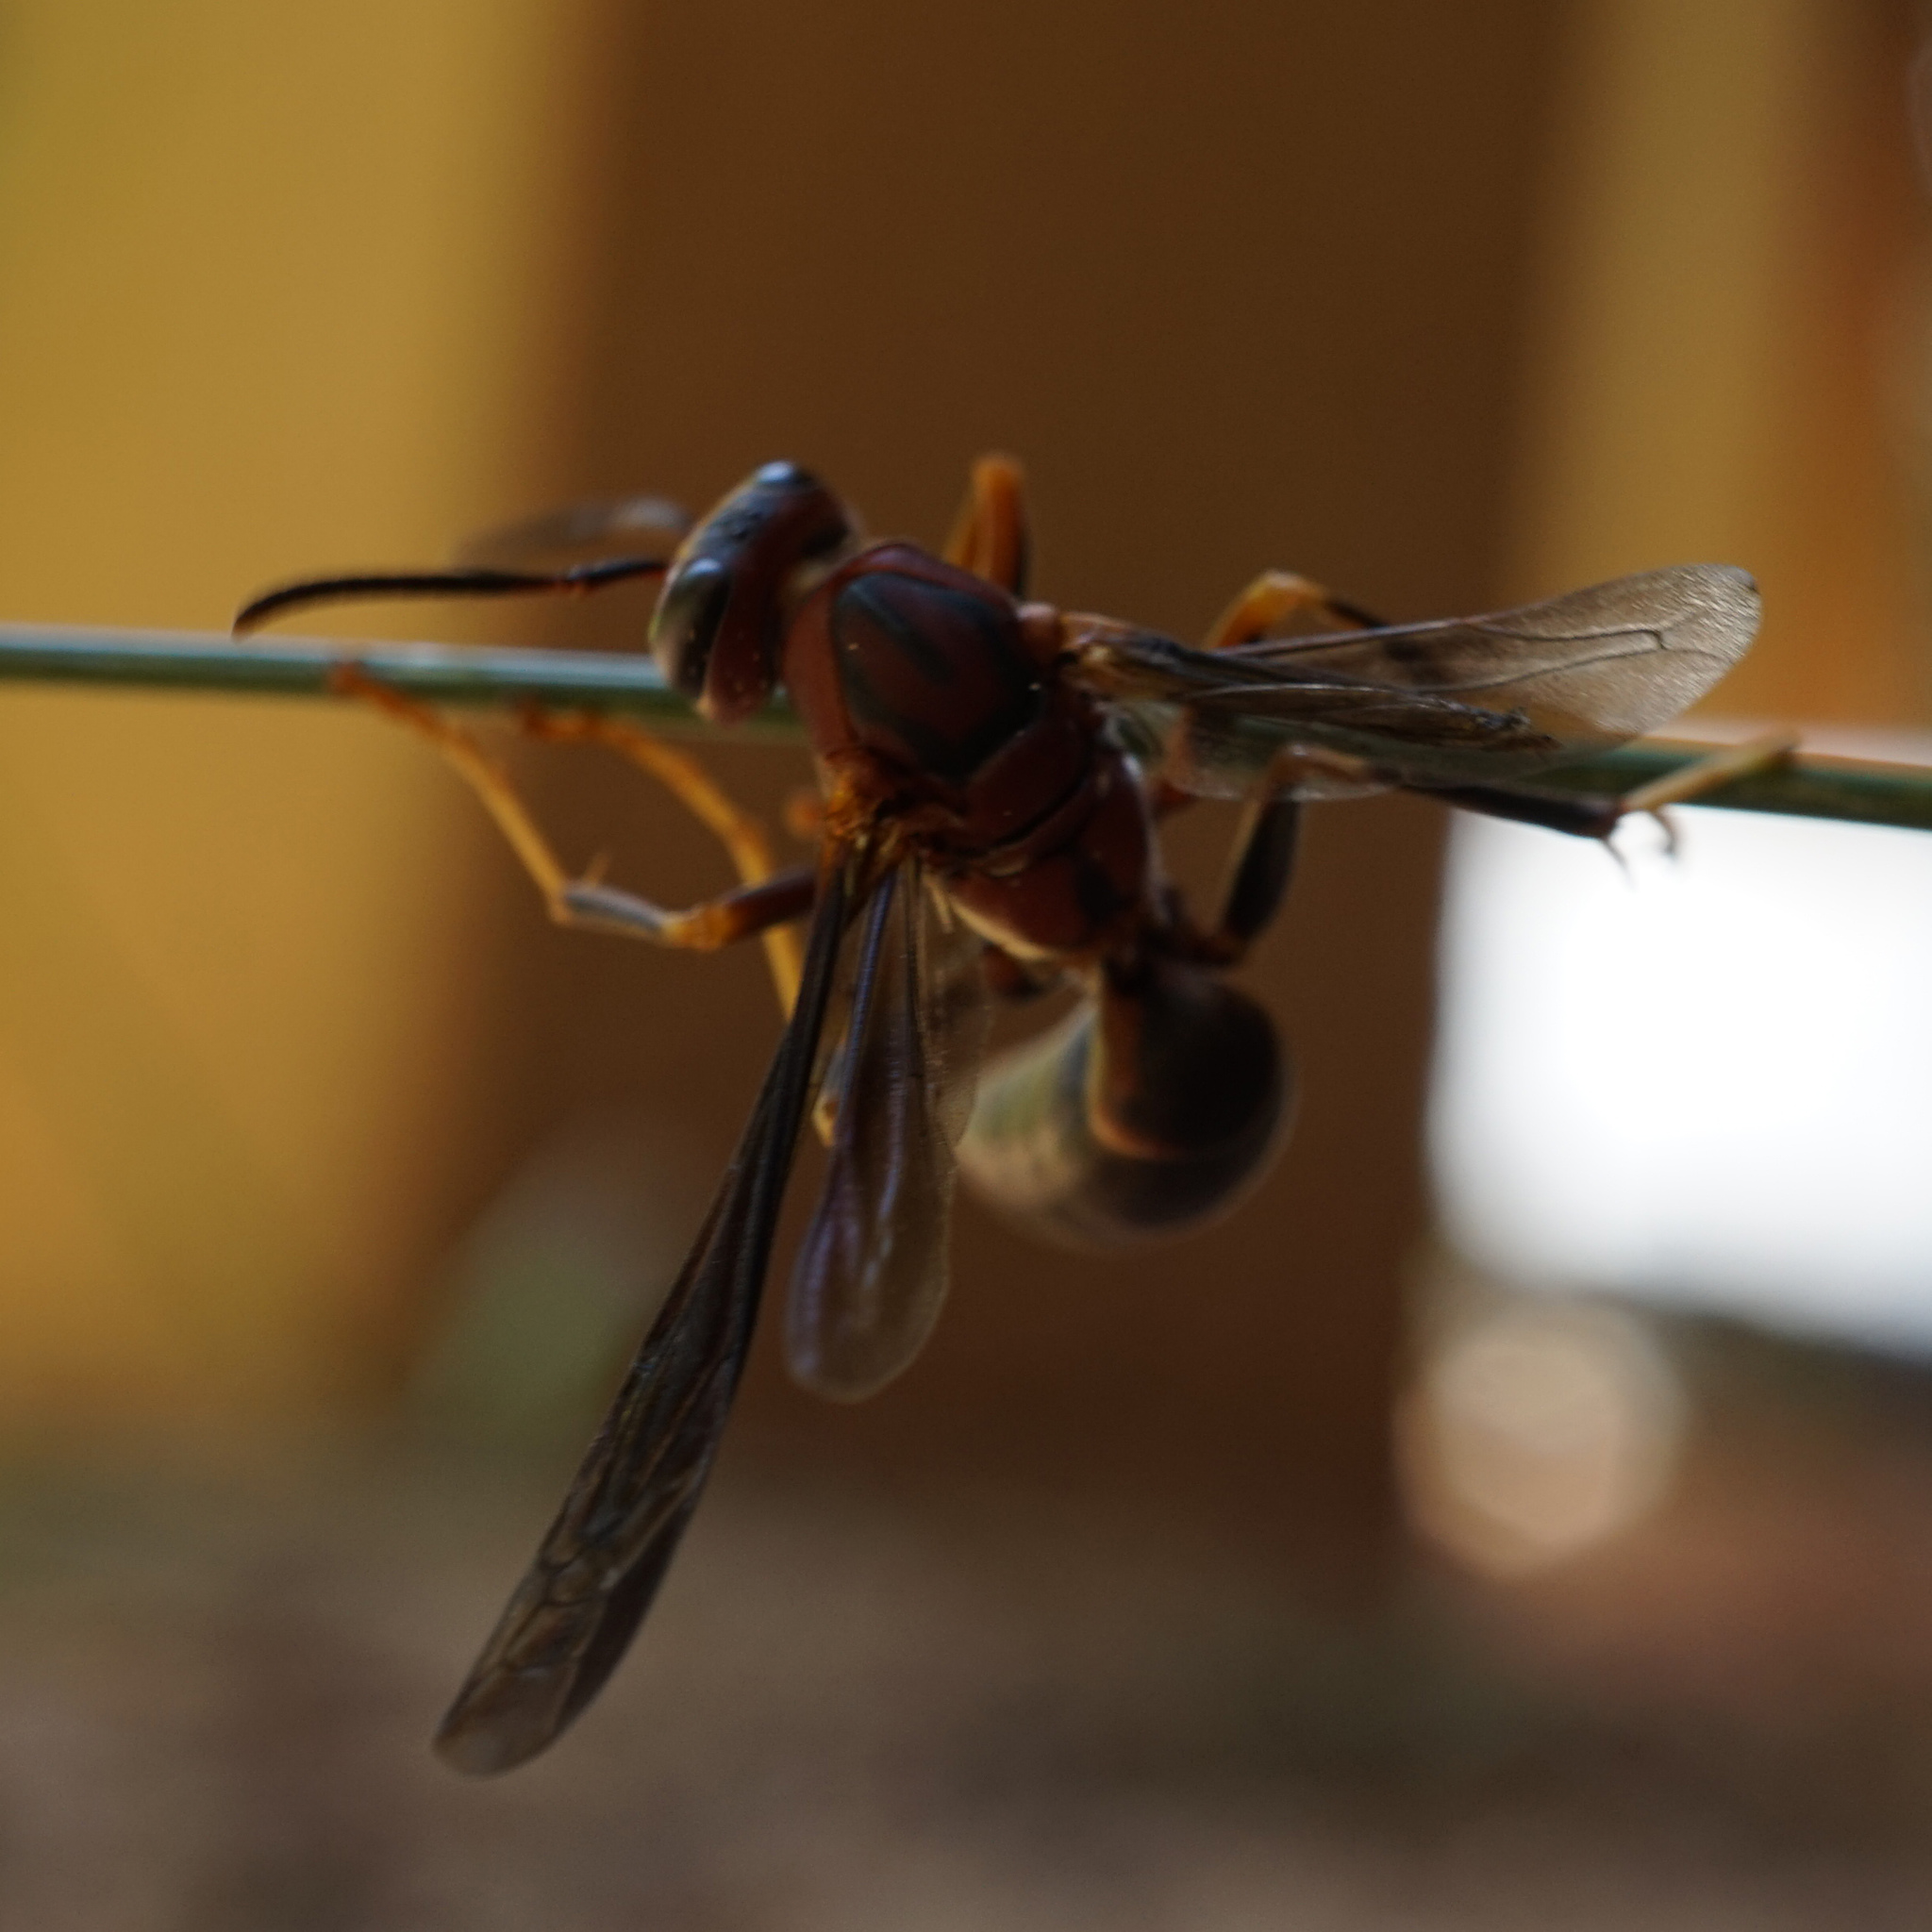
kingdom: Animalia
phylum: Arthropoda
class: Insecta
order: Hymenoptera
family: Eumenidae
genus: Polistes
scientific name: Polistes metricus
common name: Metric paper wasp
